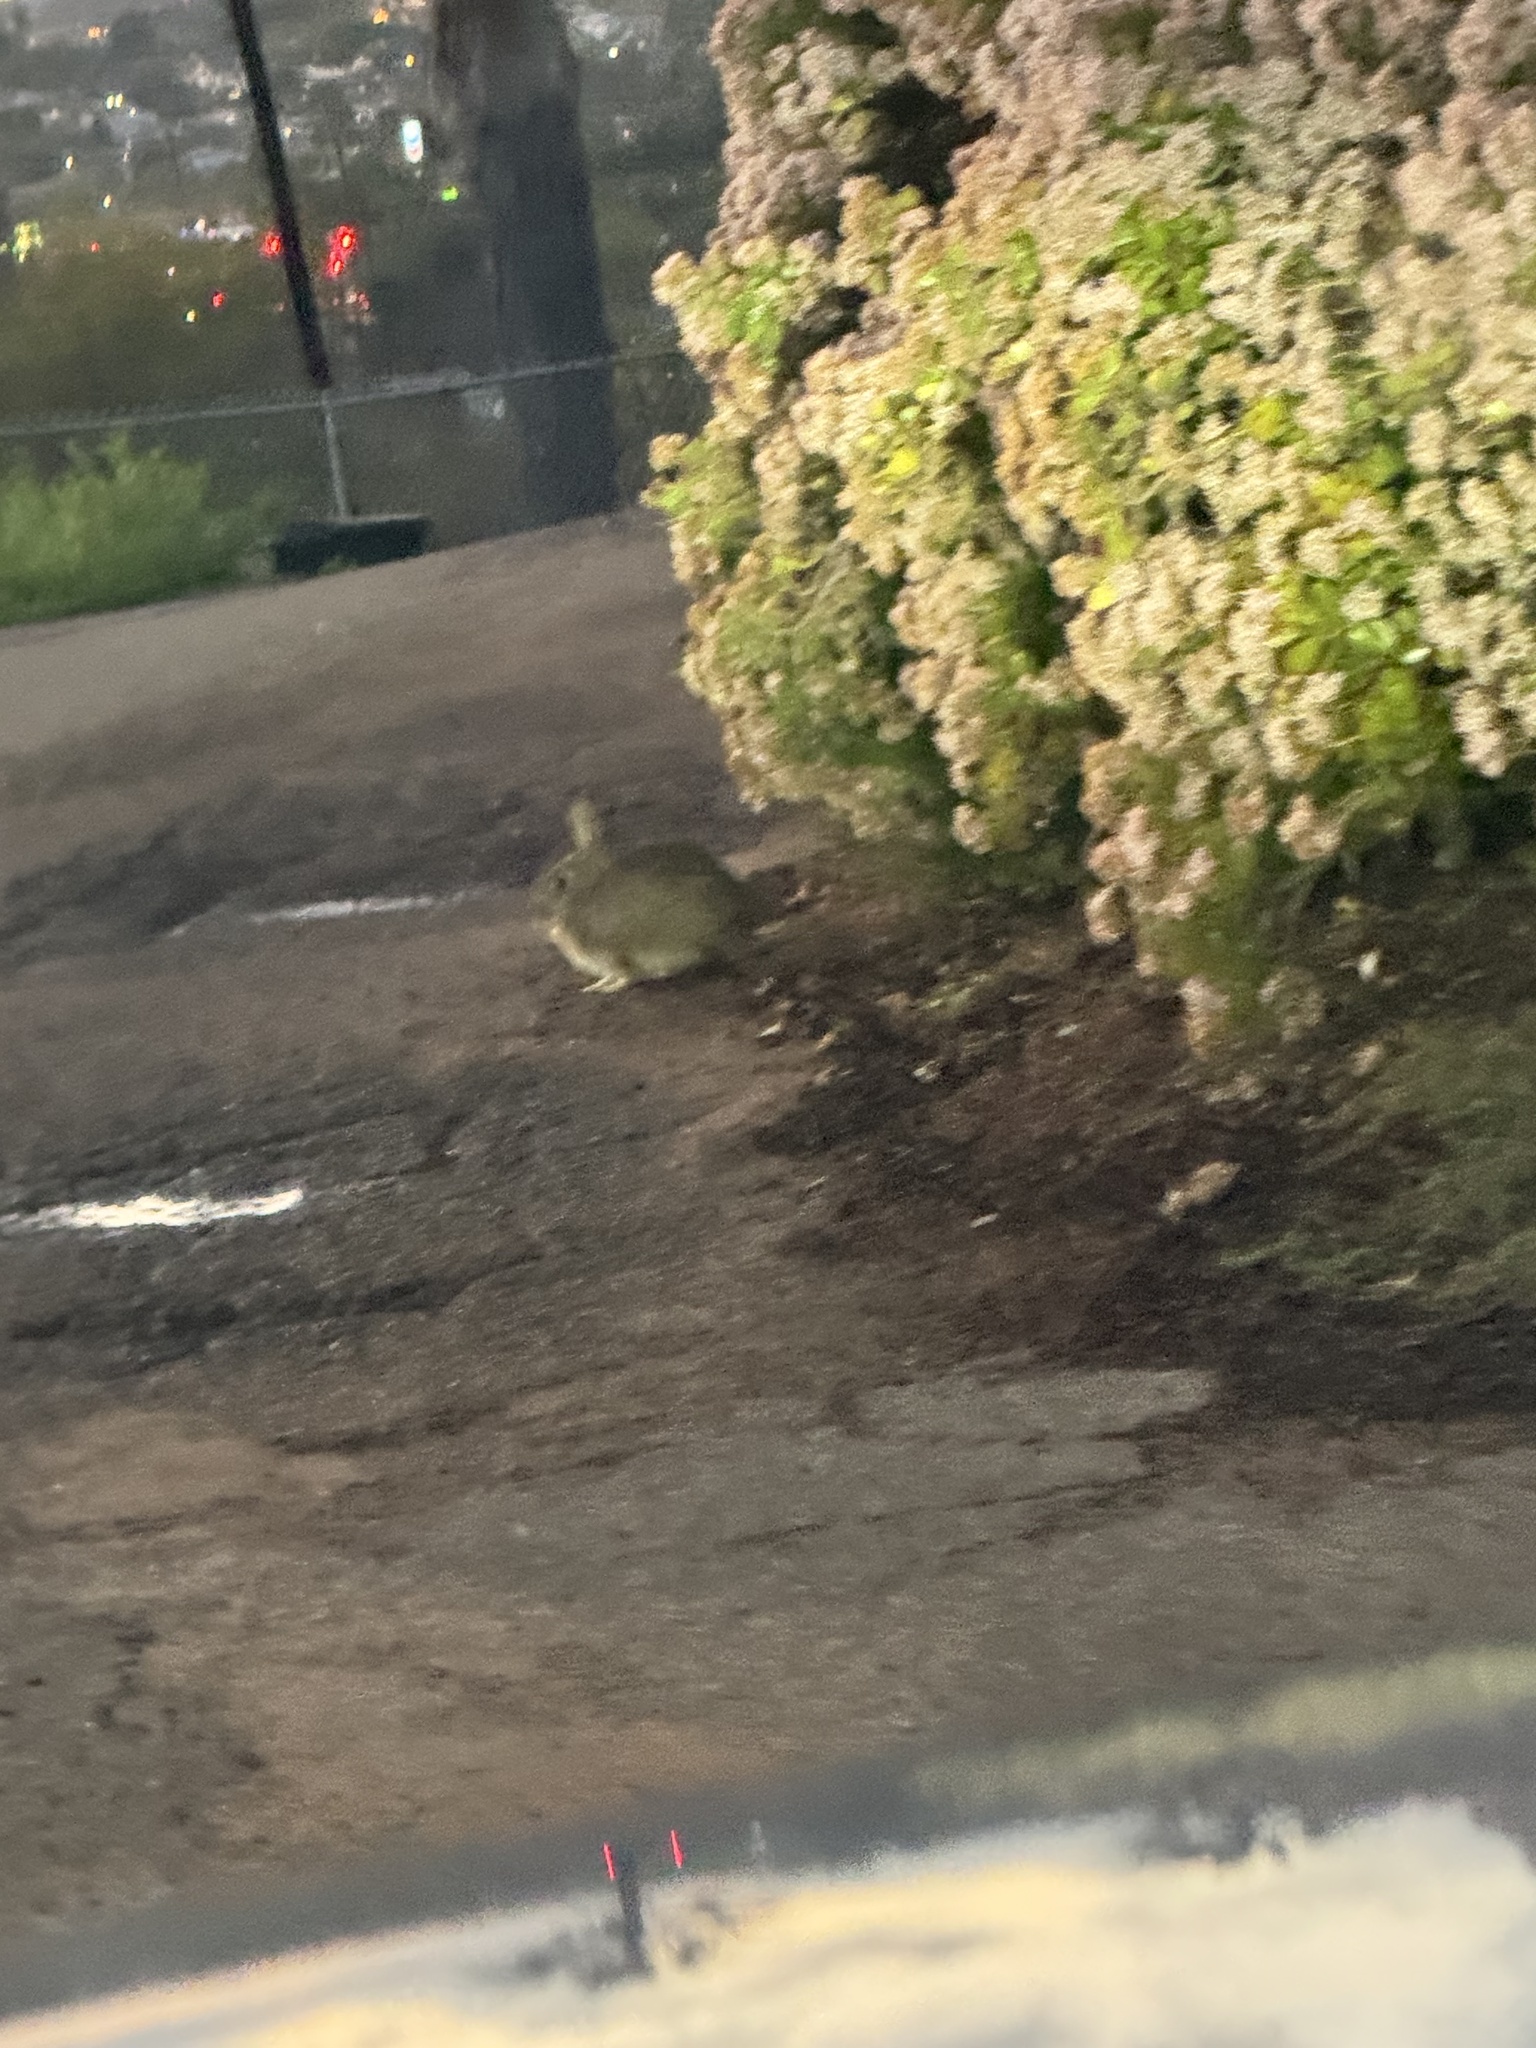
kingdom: Animalia
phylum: Chordata
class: Mammalia
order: Lagomorpha
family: Leporidae
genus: Sylvilagus
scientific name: Sylvilagus bachmani
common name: Brush rabbit
